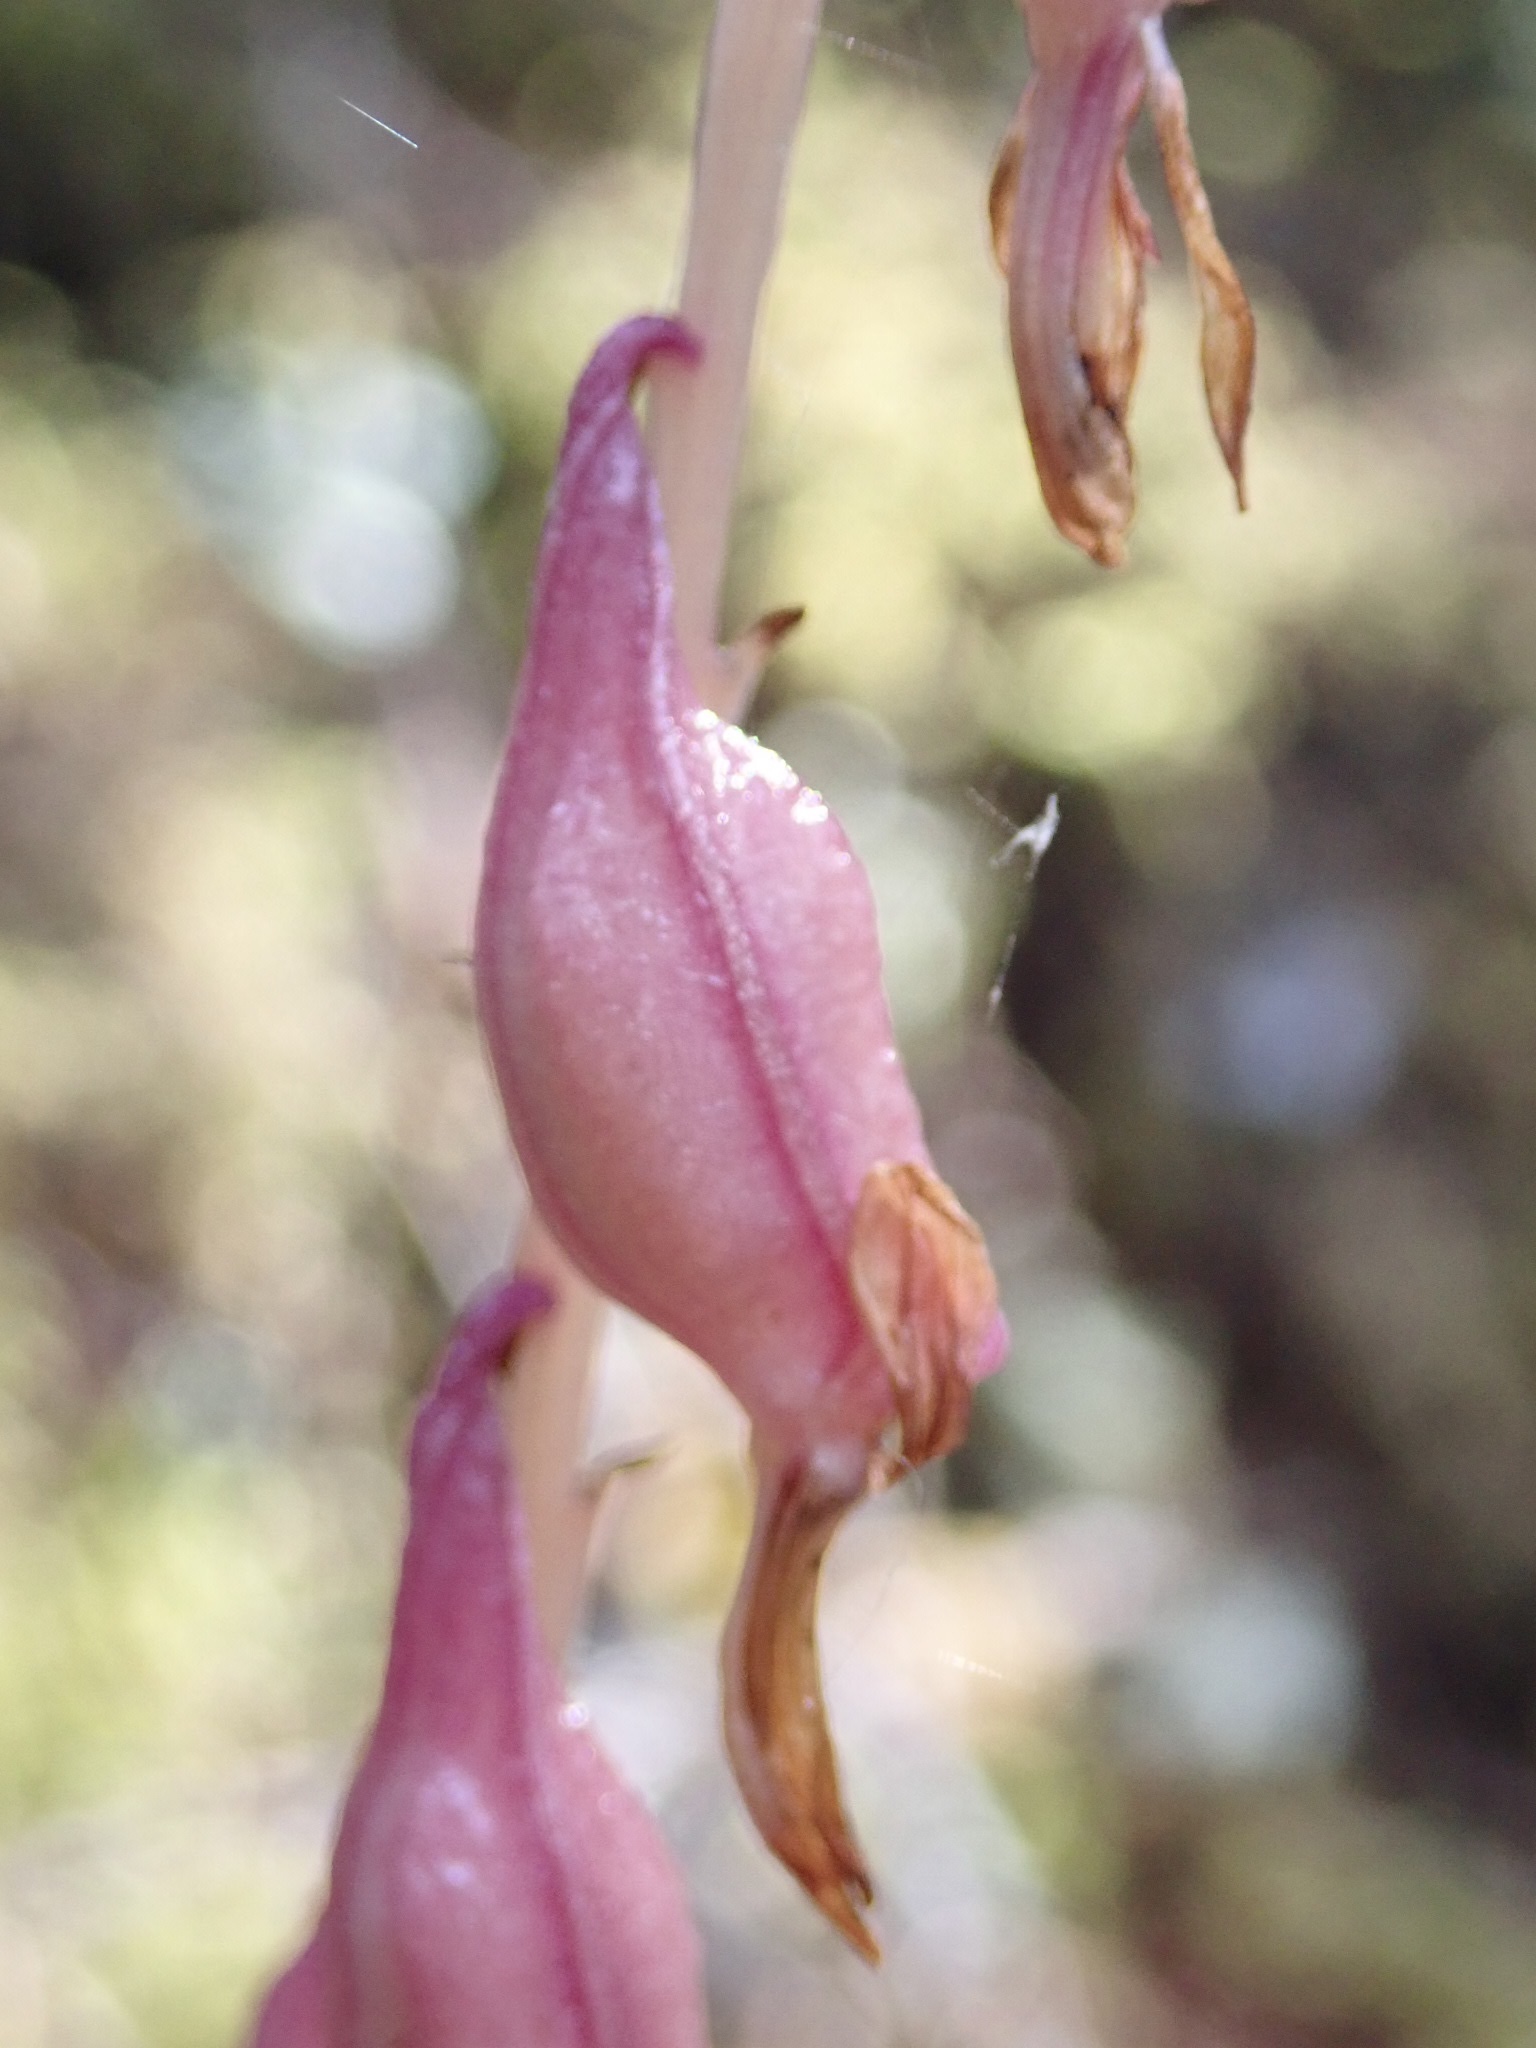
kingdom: Plantae
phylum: Tracheophyta
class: Liliopsida
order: Asparagales
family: Orchidaceae
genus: Corallorhiza
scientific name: Corallorhiza mertensiana
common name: Pacific coralroot
